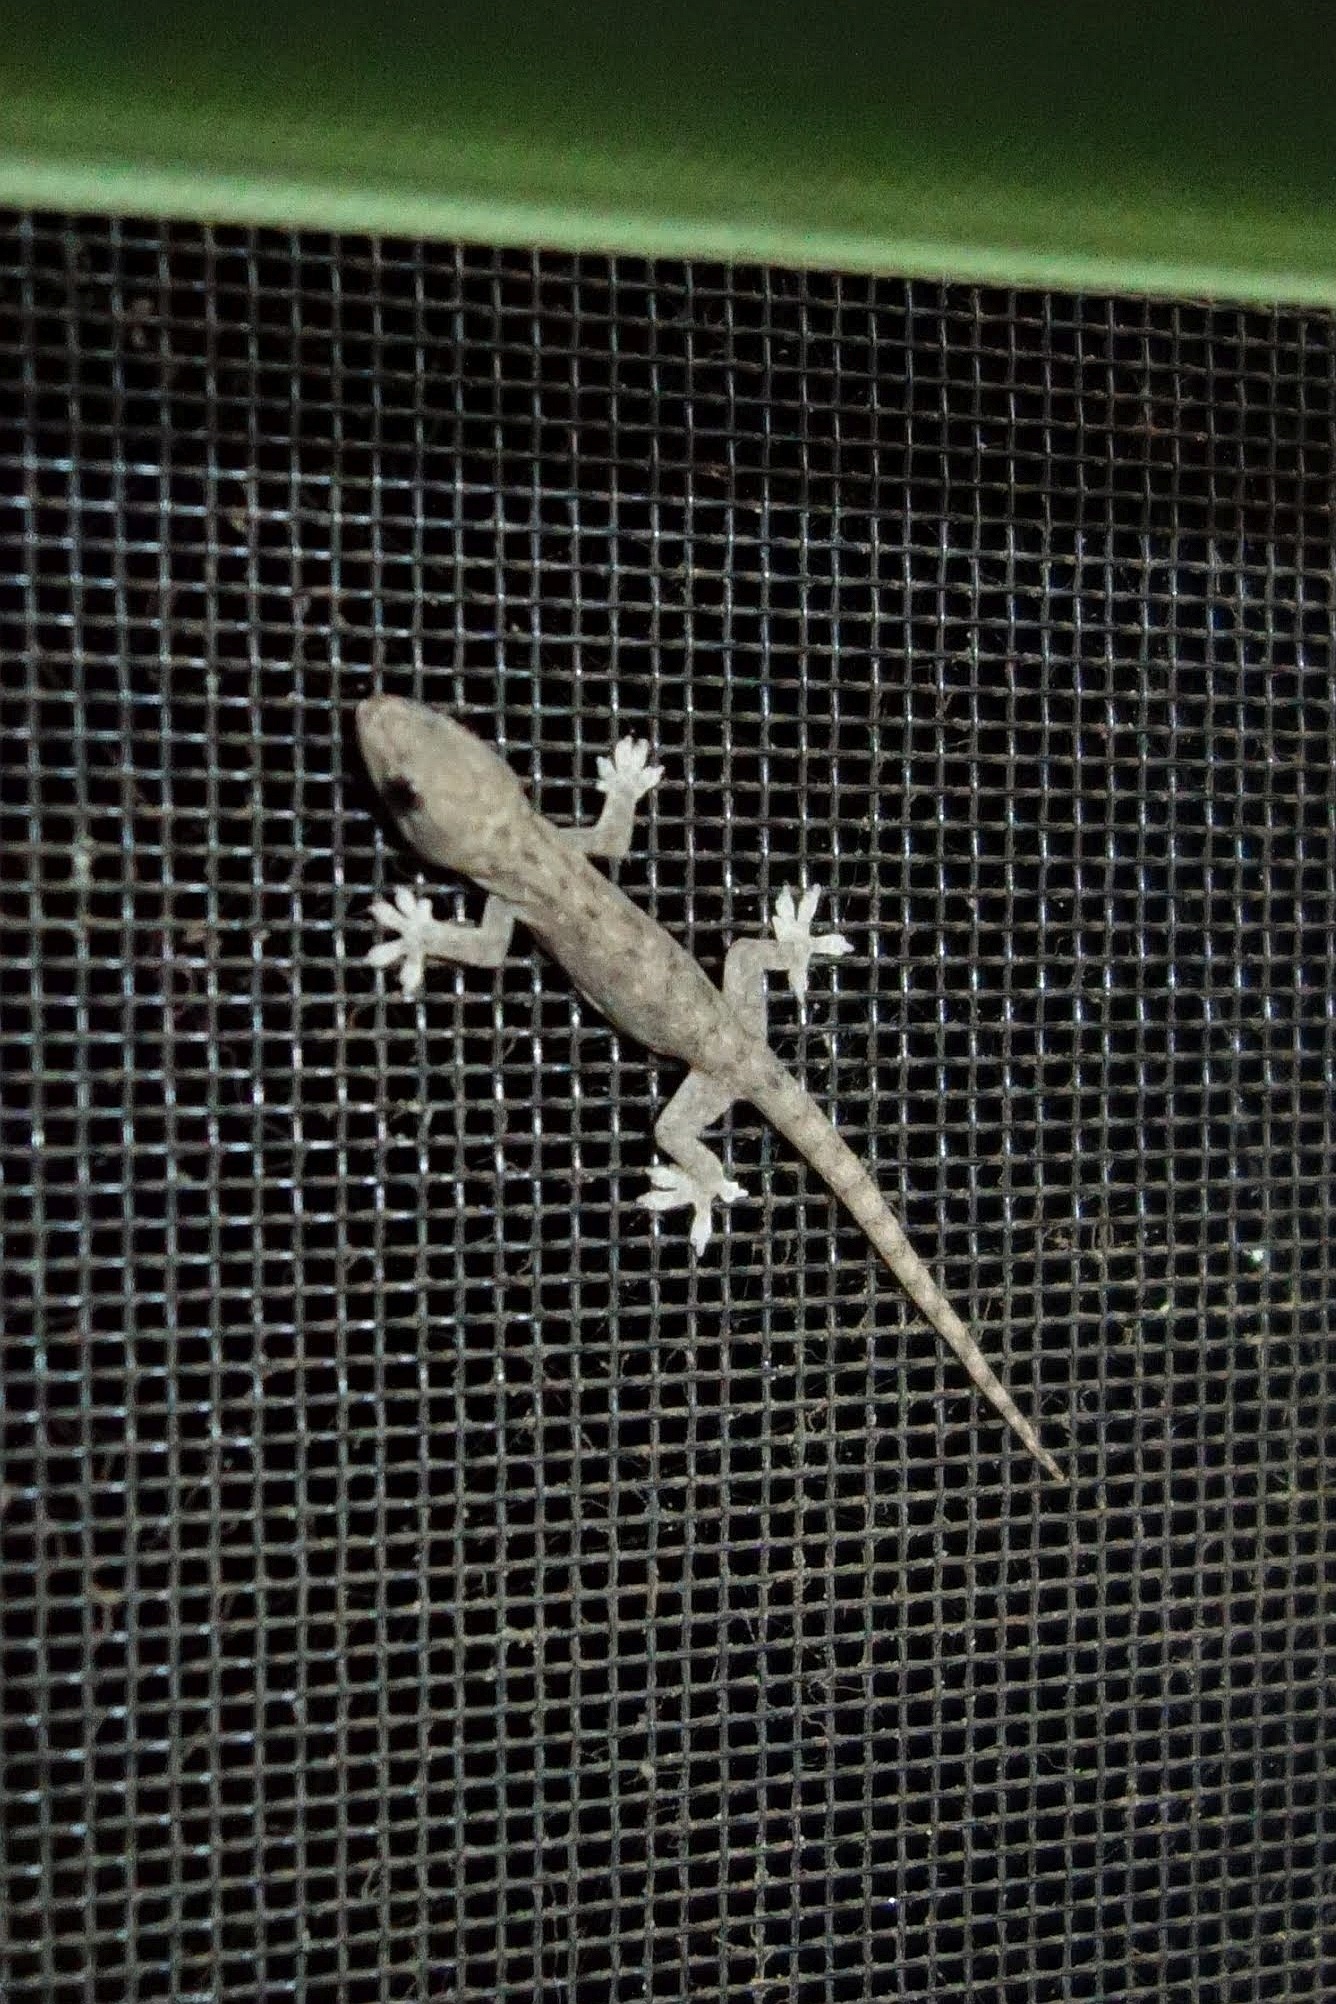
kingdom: Animalia
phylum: Chordata
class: Squamata
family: Gekkonidae
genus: Gehyra
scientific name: Gehyra oceanica
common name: Pacific dtella
